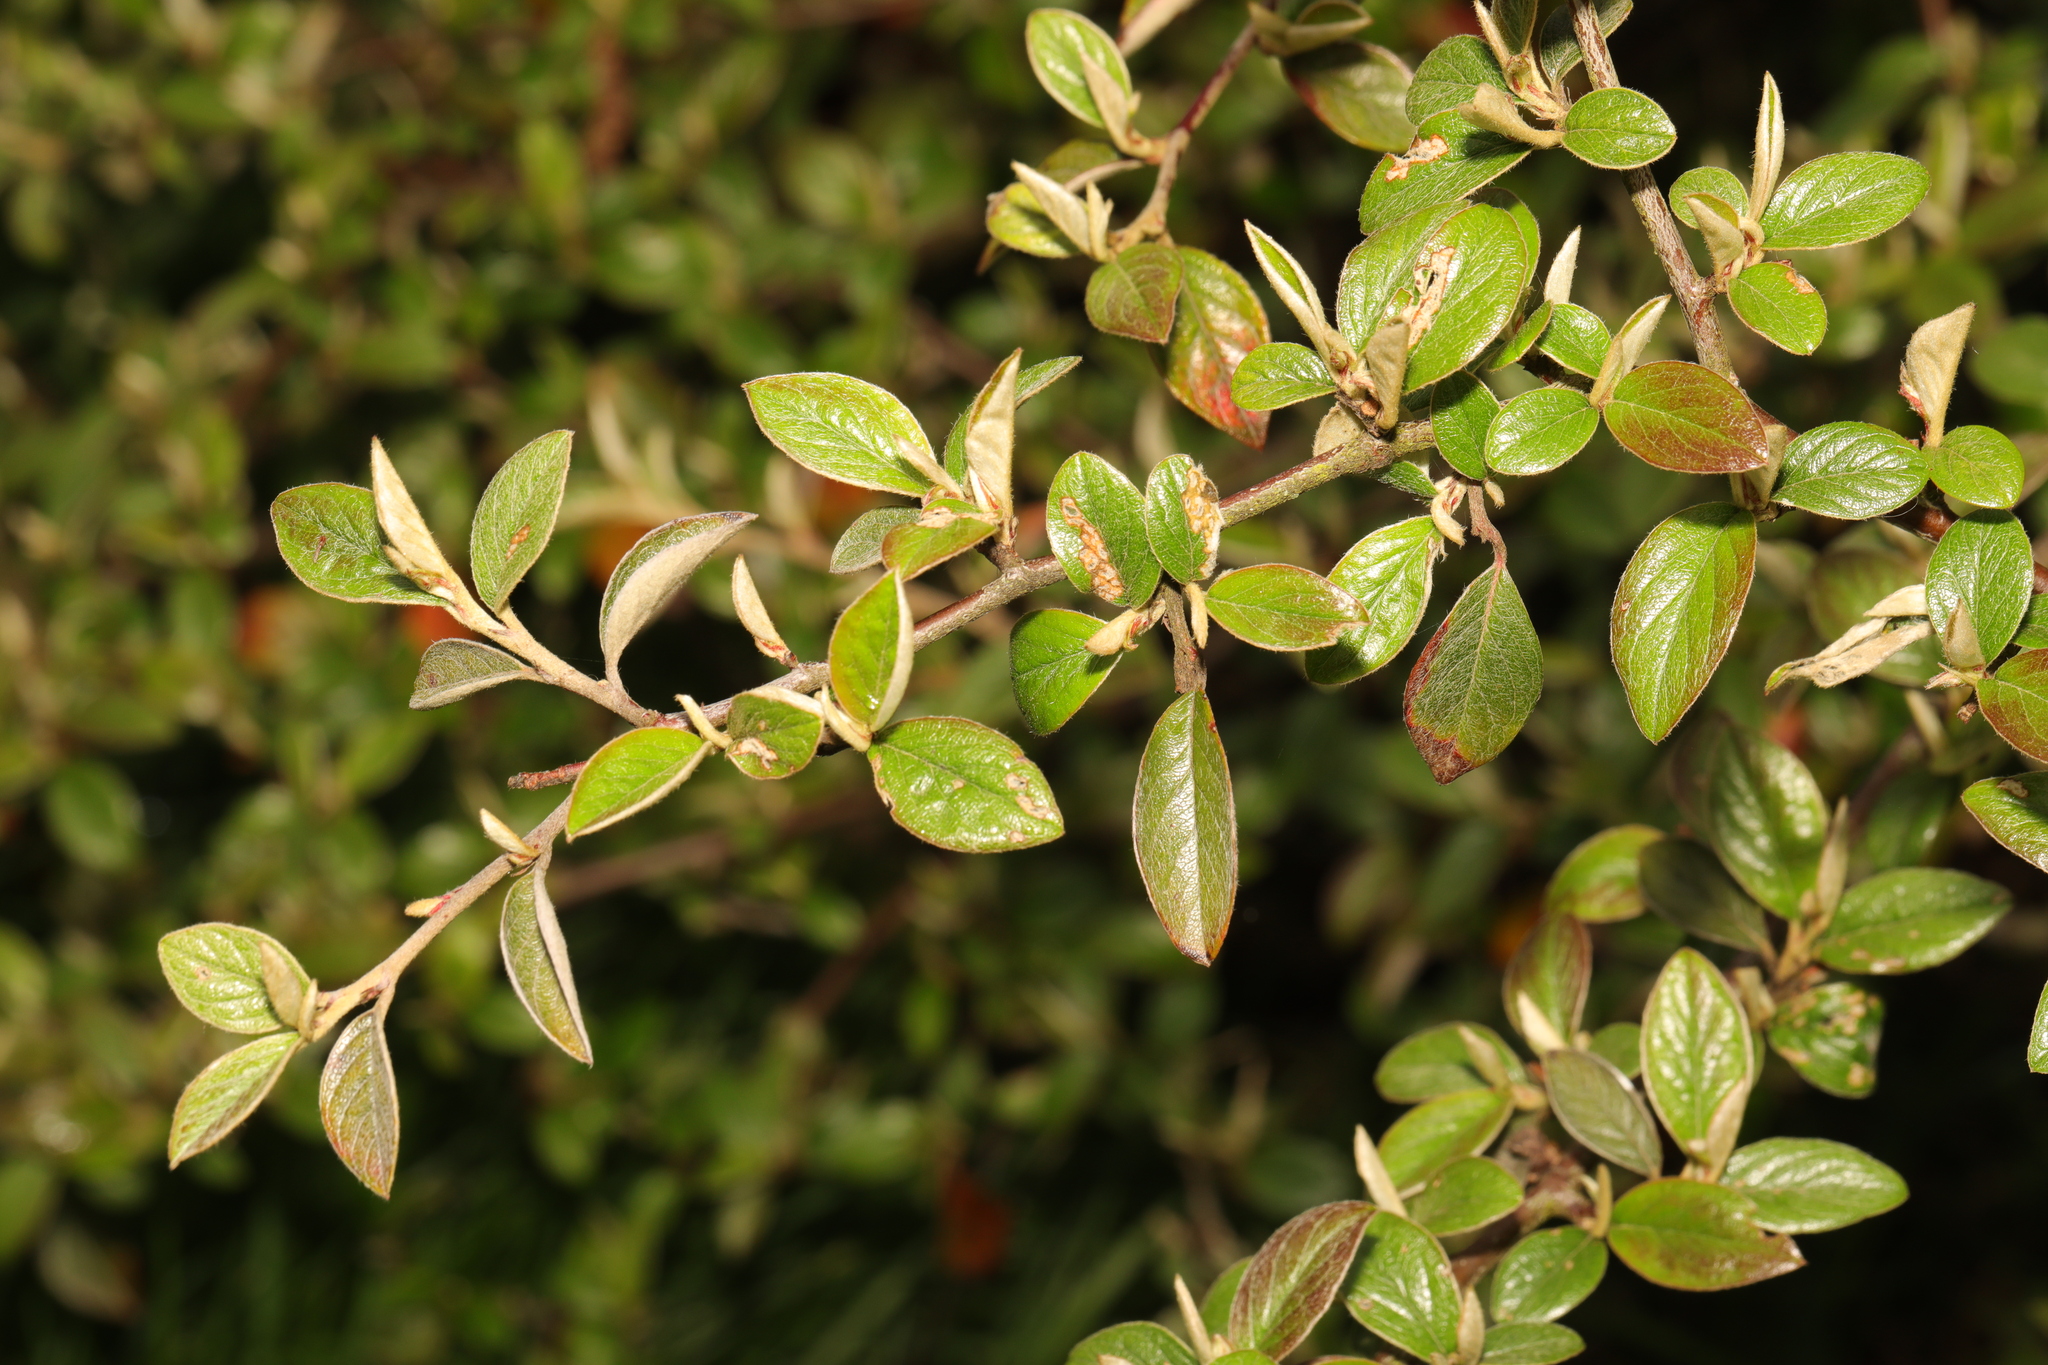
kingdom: Plantae
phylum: Tracheophyta
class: Magnoliopsida
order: Rosales
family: Rosaceae
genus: Cotoneaster
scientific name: Cotoneaster franchetii
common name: Franchet's cotoneaster
